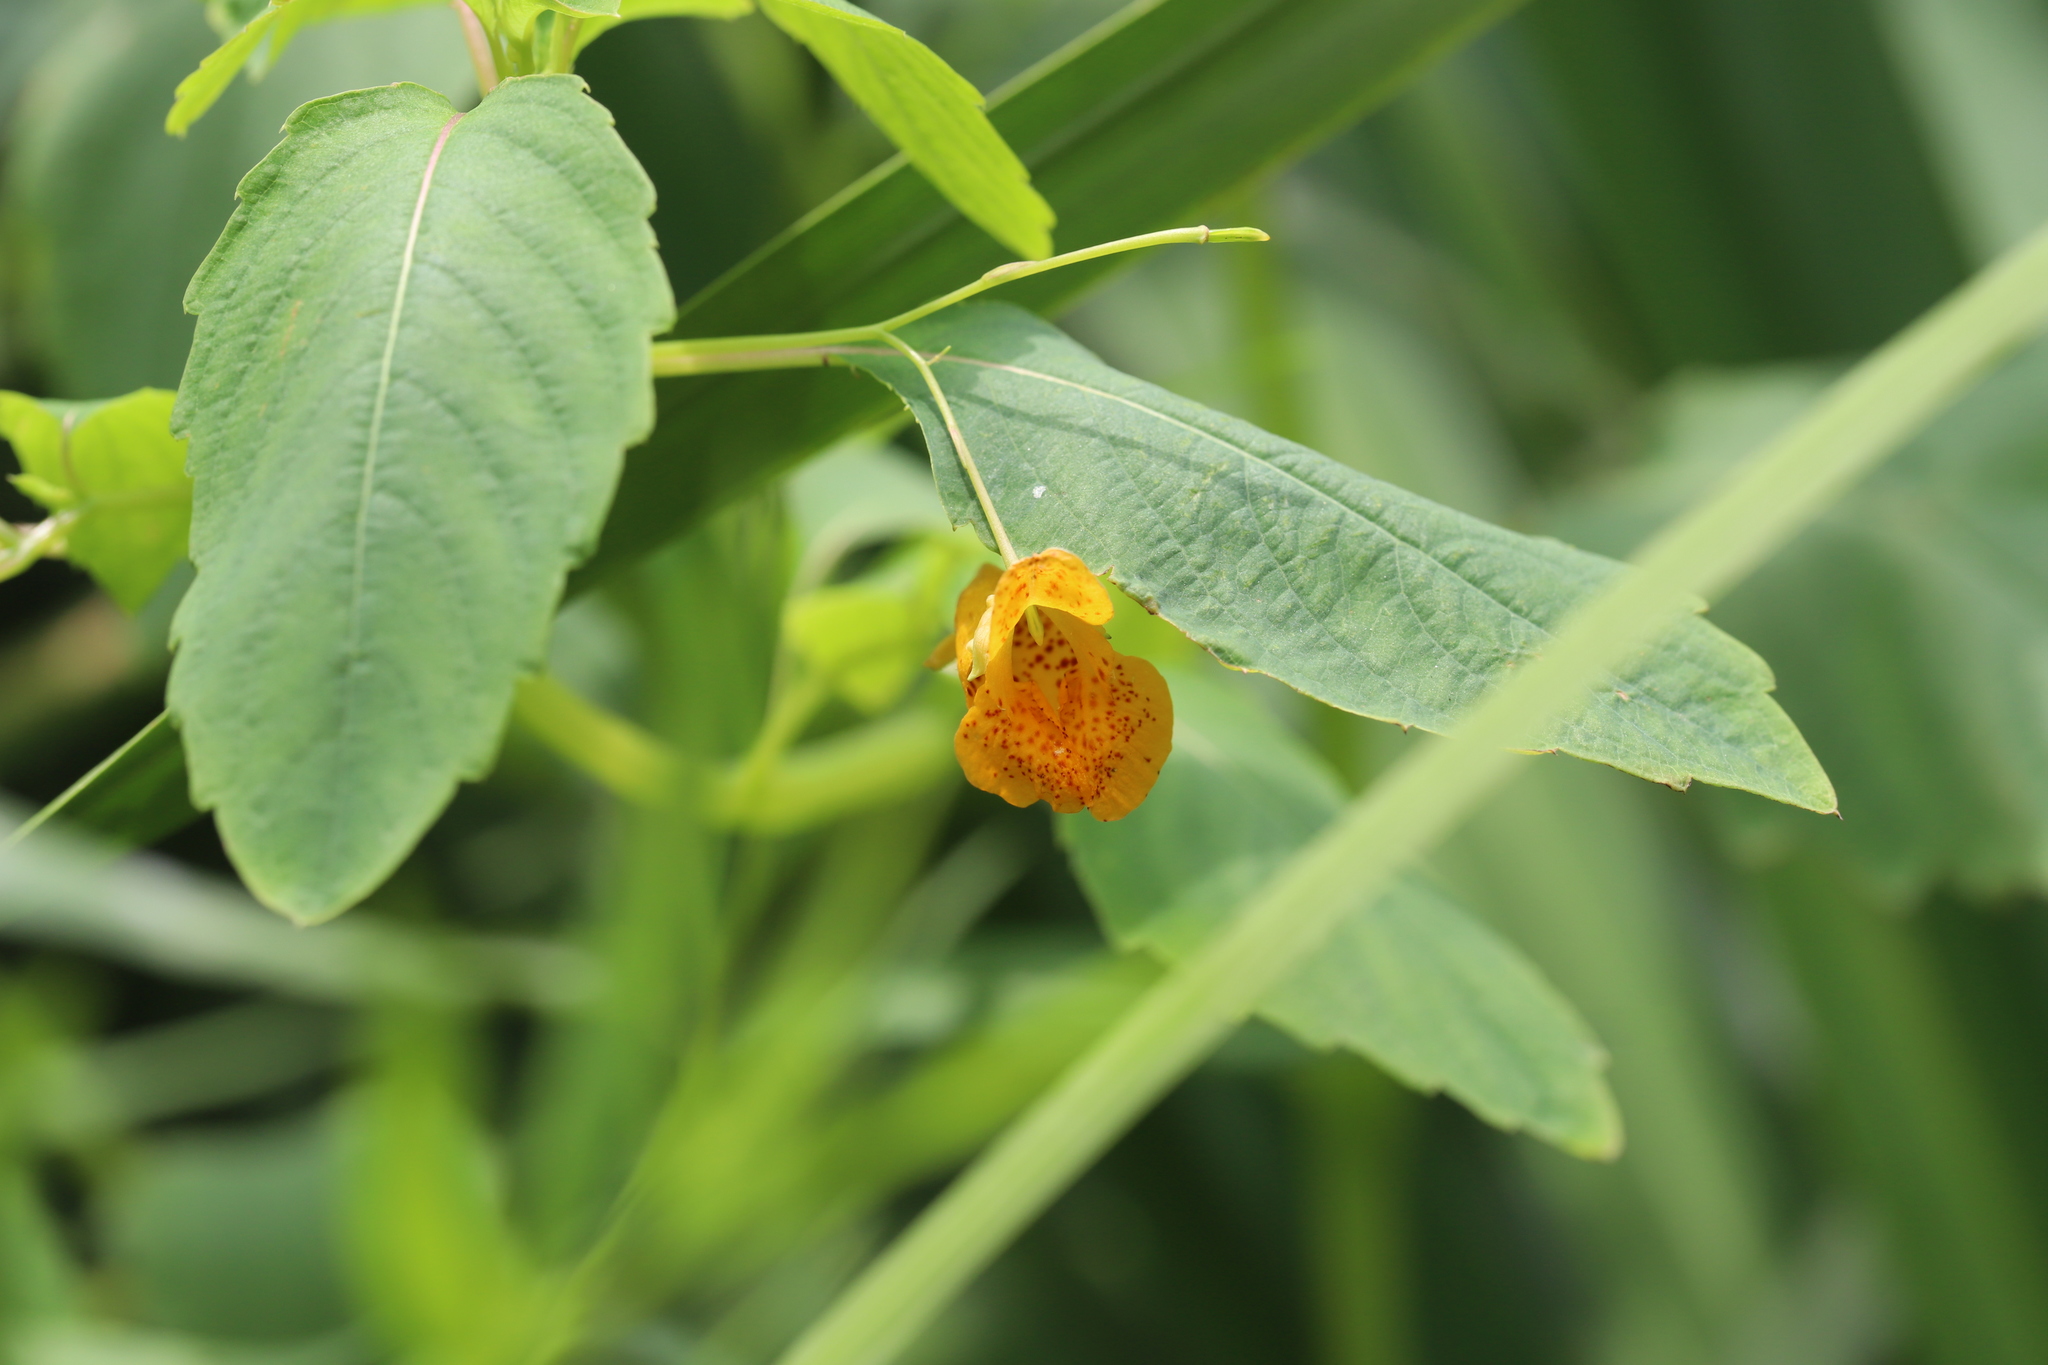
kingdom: Plantae
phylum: Tracheophyta
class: Magnoliopsida
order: Ericales
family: Balsaminaceae
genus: Impatiens
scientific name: Impatiens capensis
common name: Orange balsam
